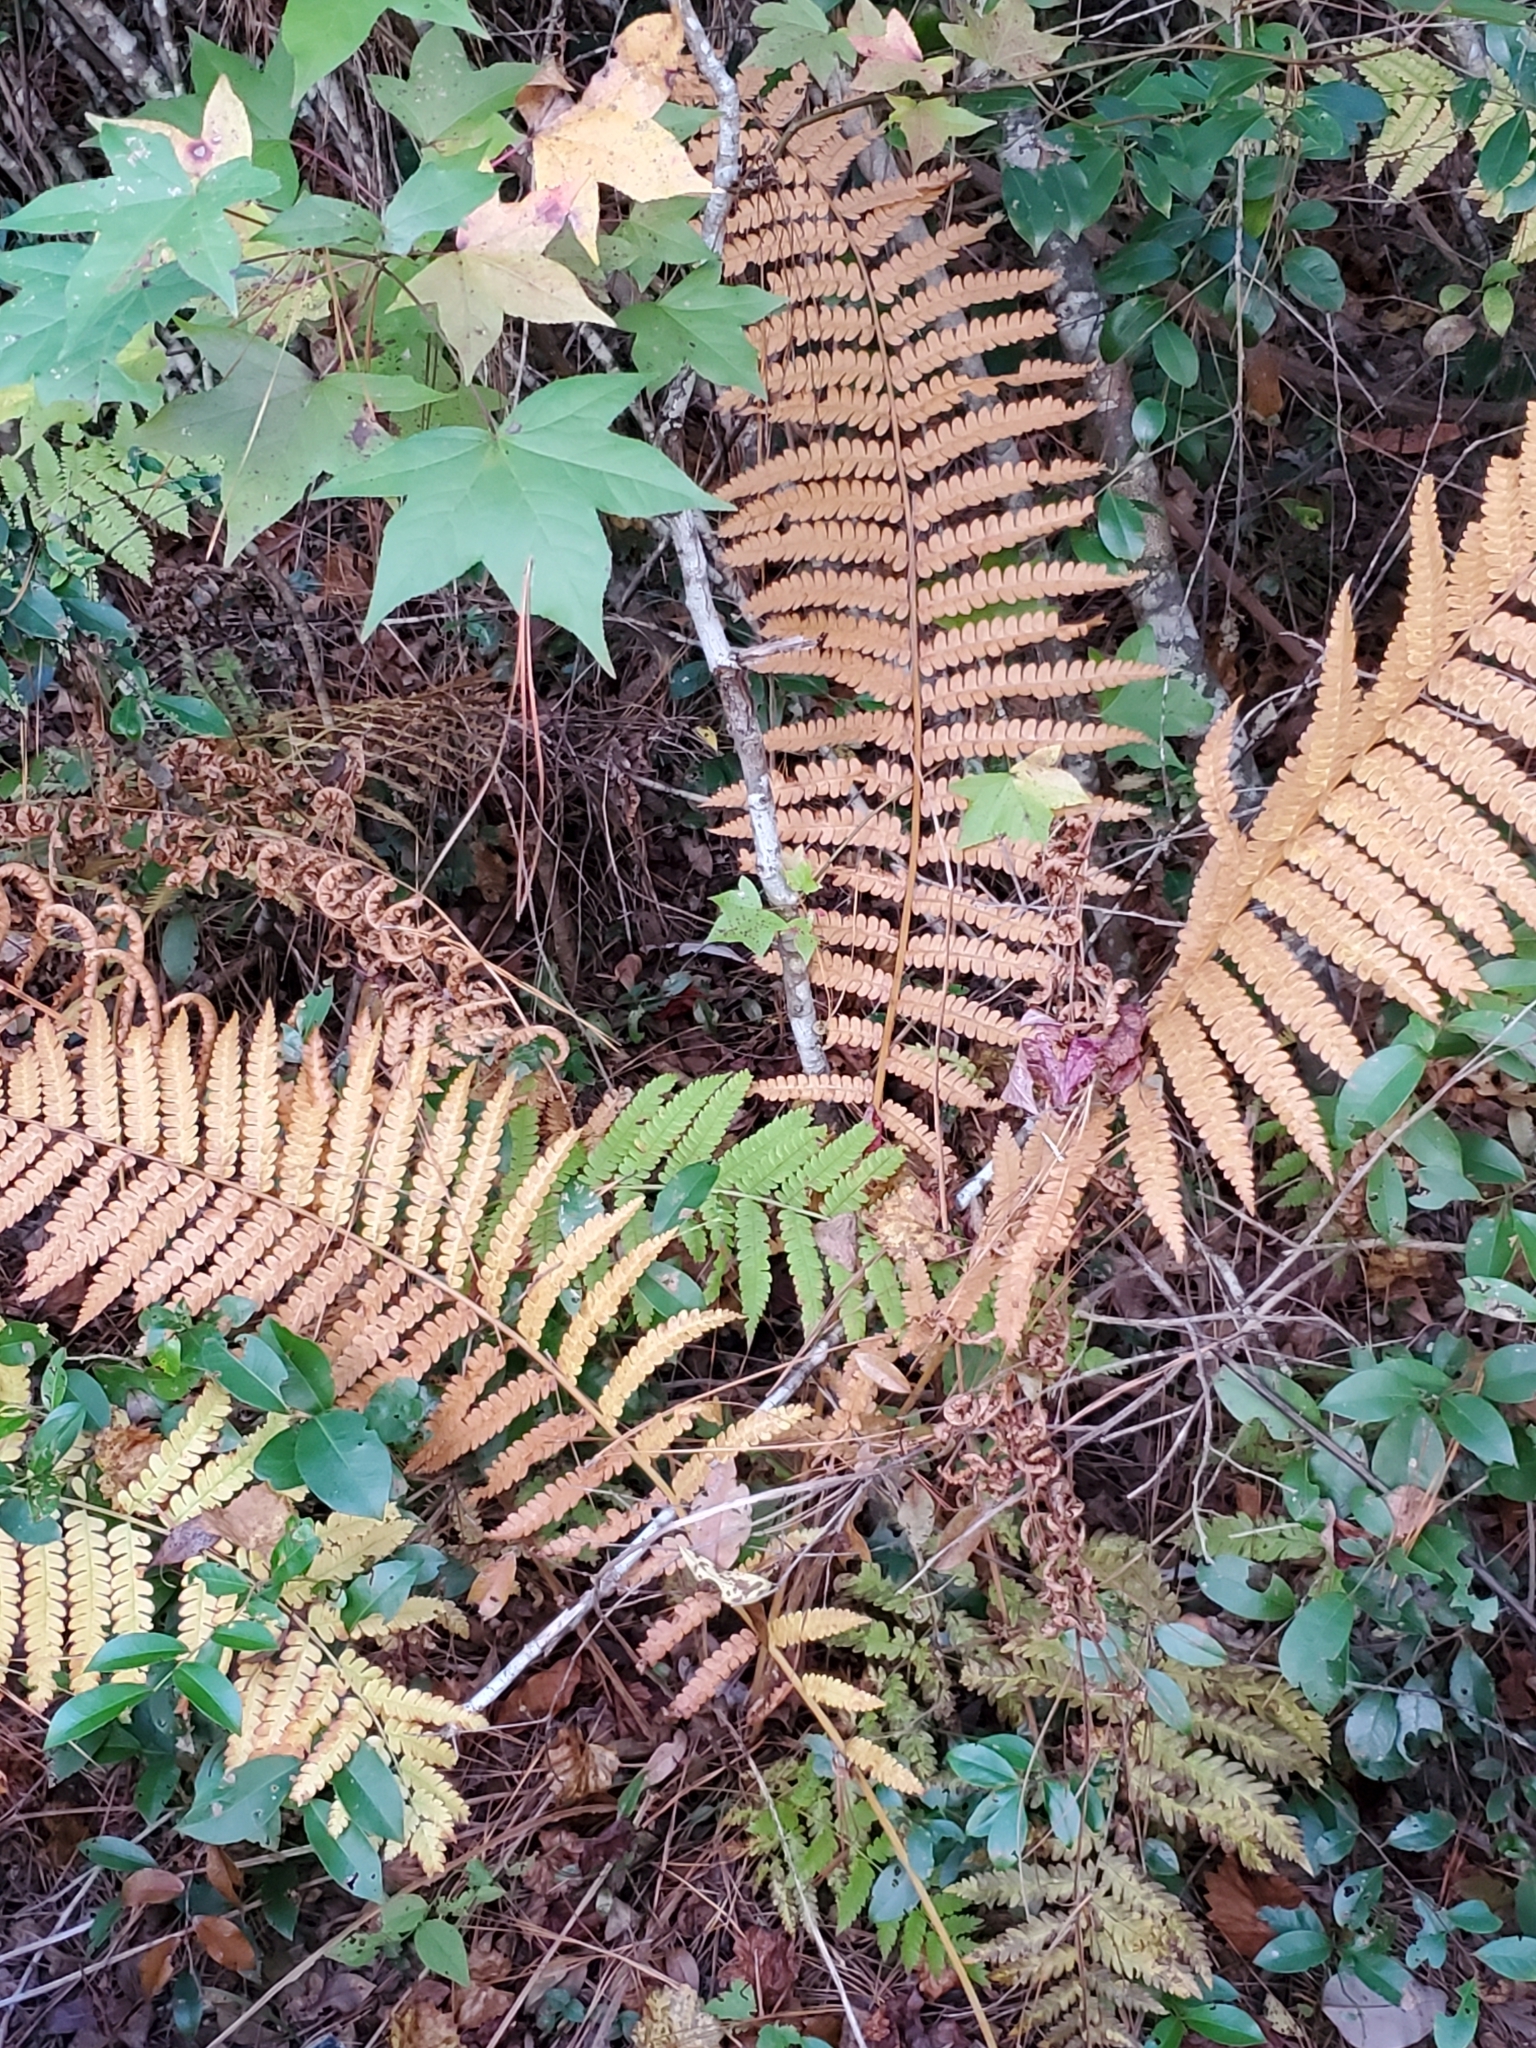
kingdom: Plantae
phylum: Tracheophyta
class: Polypodiopsida
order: Osmundales
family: Osmundaceae
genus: Osmundastrum
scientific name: Osmundastrum cinnamomeum
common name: Cinnamon fern
